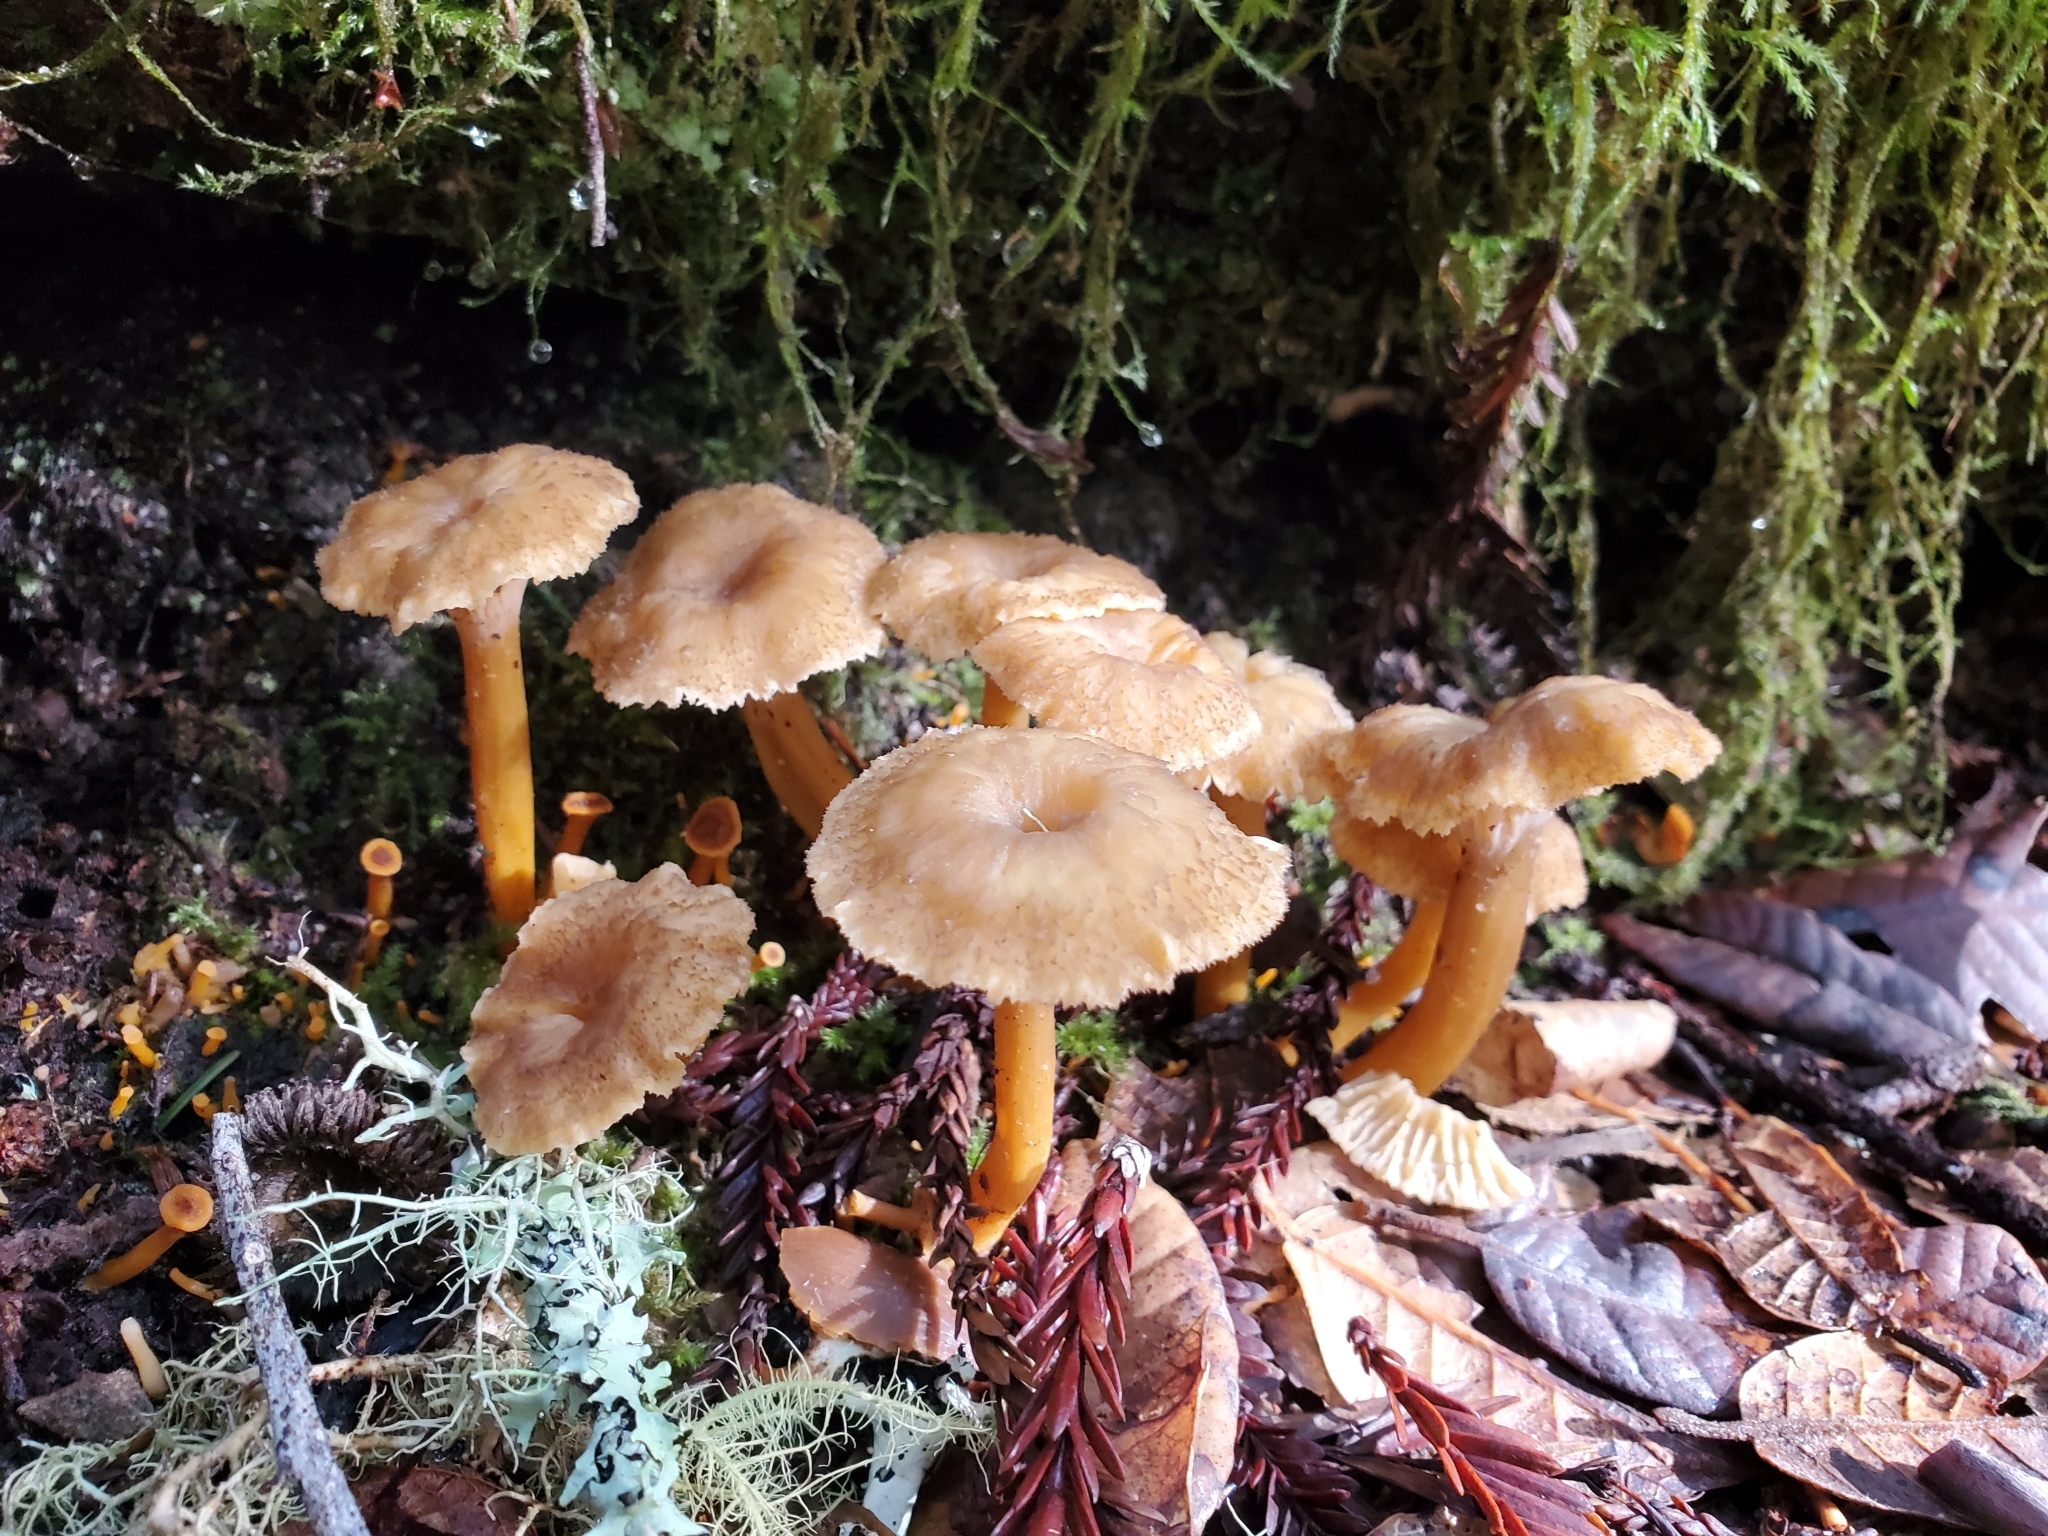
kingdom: Fungi
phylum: Basidiomycota
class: Agaricomycetes
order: Cantharellales
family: Hydnaceae
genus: Craterellus
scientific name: Craterellus tubaeformis
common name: Yellowfoot
